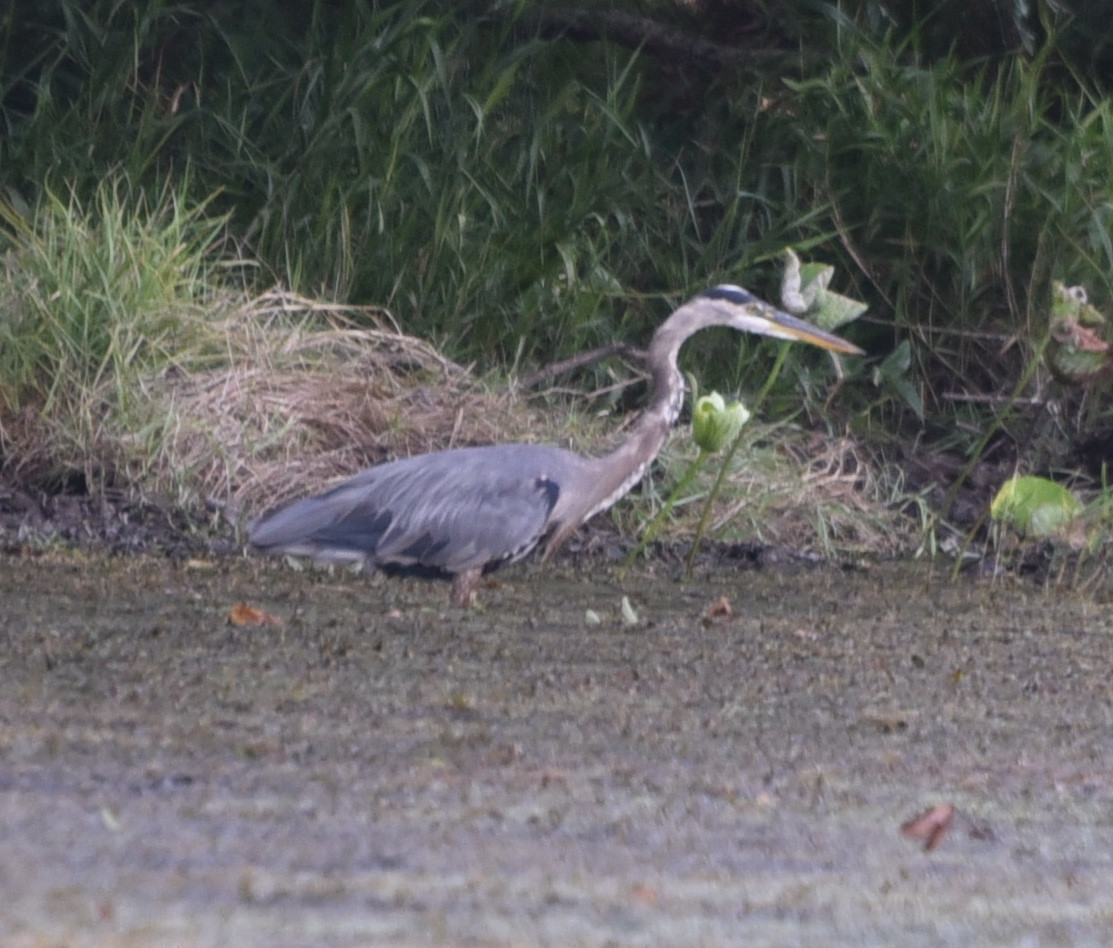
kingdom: Animalia
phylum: Chordata
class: Aves
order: Pelecaniformes
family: Ardeidae
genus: Ardea
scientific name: Ardea herodias
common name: Great blue heron
